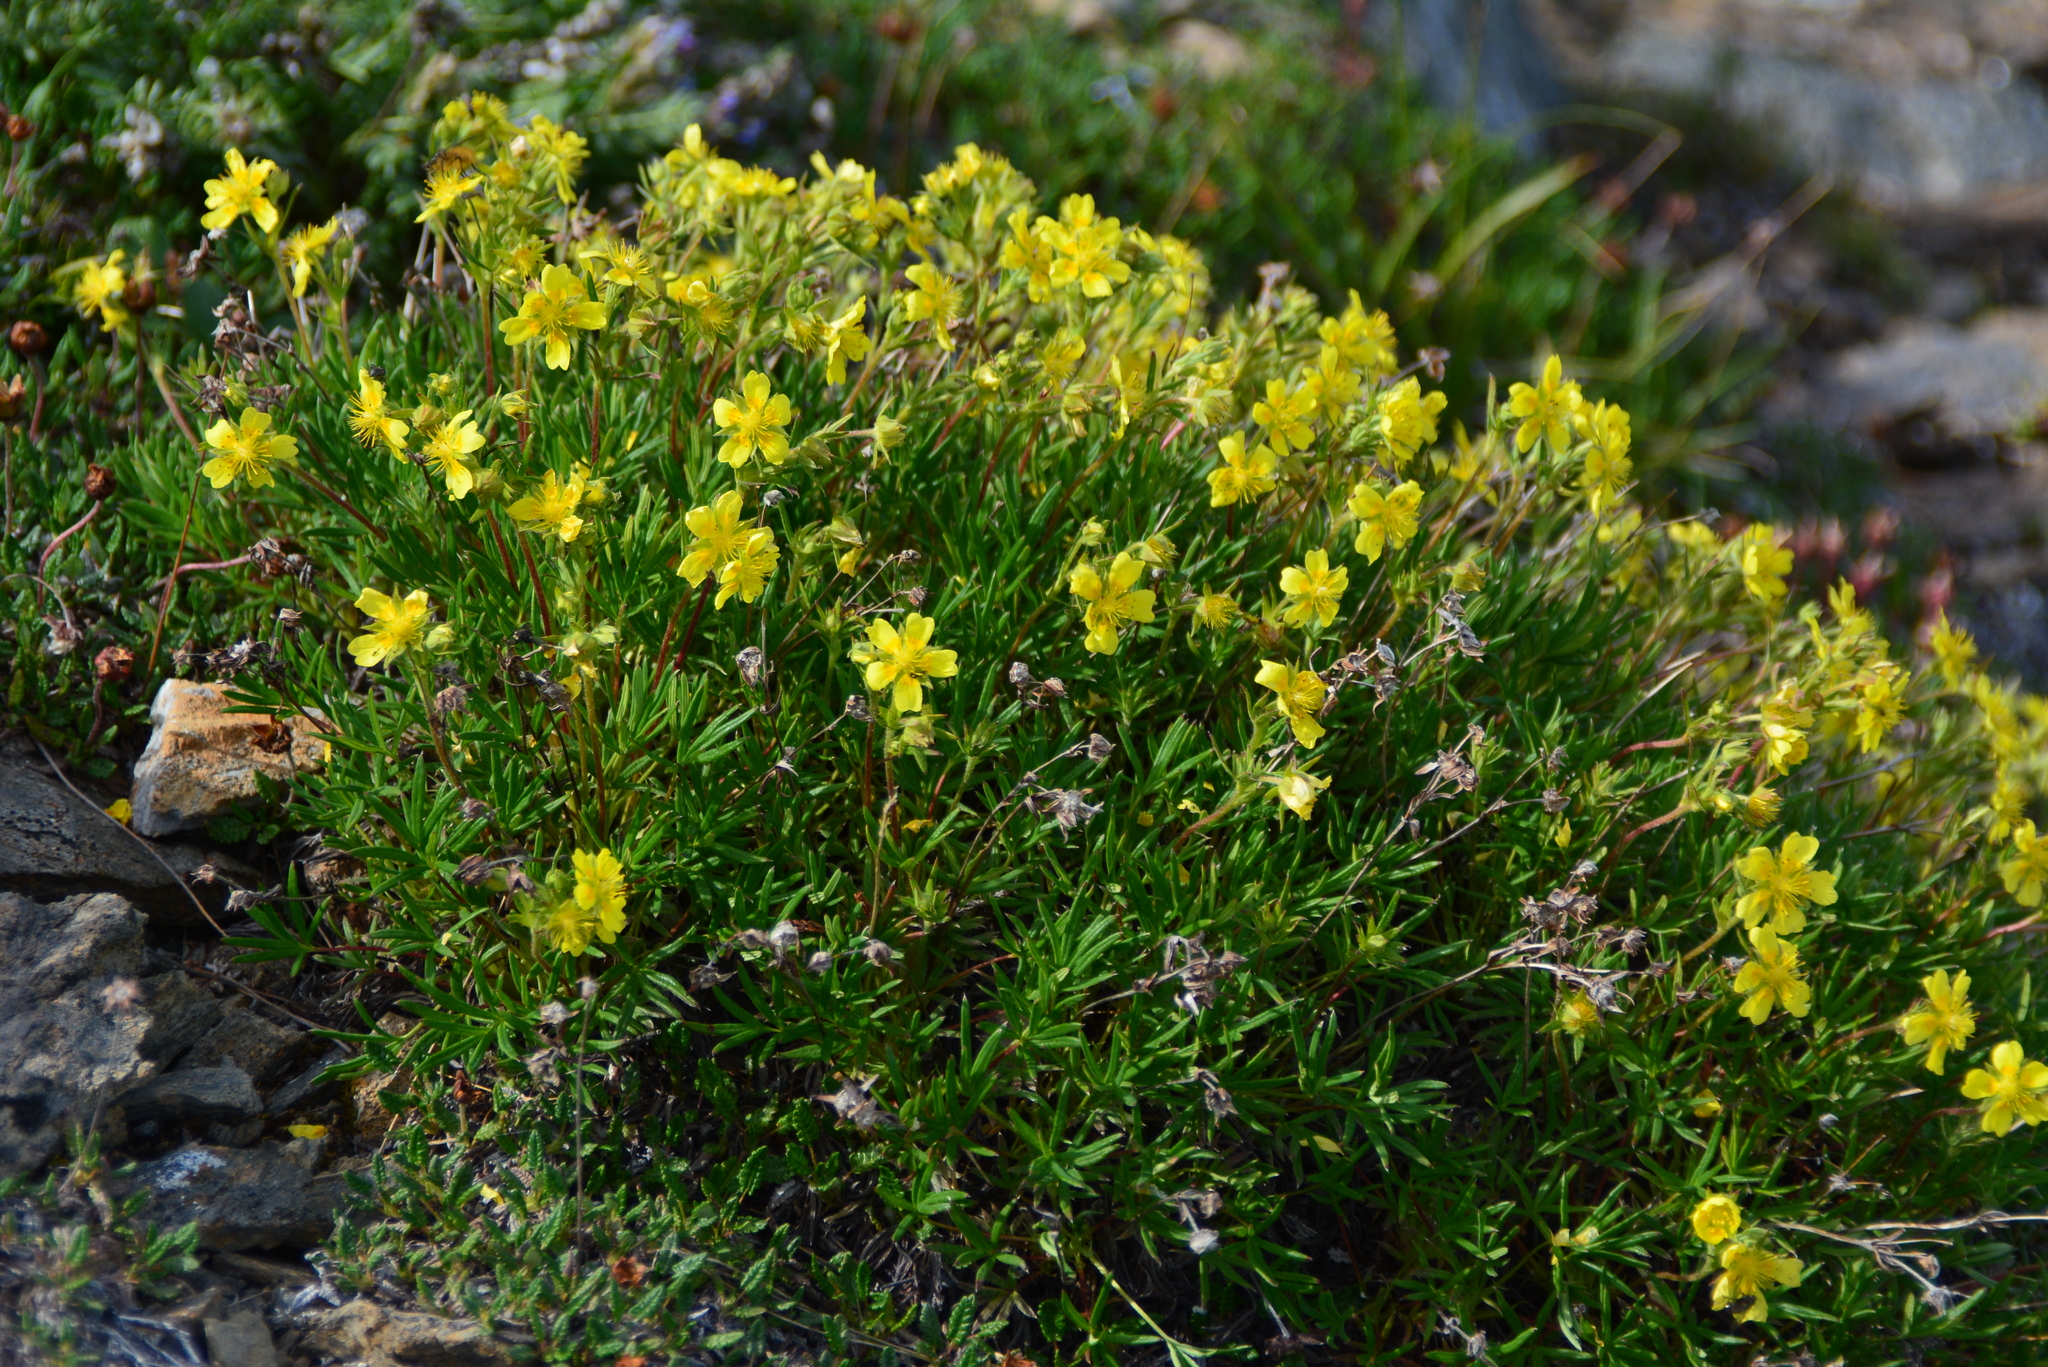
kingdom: Plantae
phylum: Tracheophyta
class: Magnoliopsida
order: Rosales
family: Rosaceae
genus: Potentilla
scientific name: Potentilla biflora
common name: Two-flowered cinquefoil
